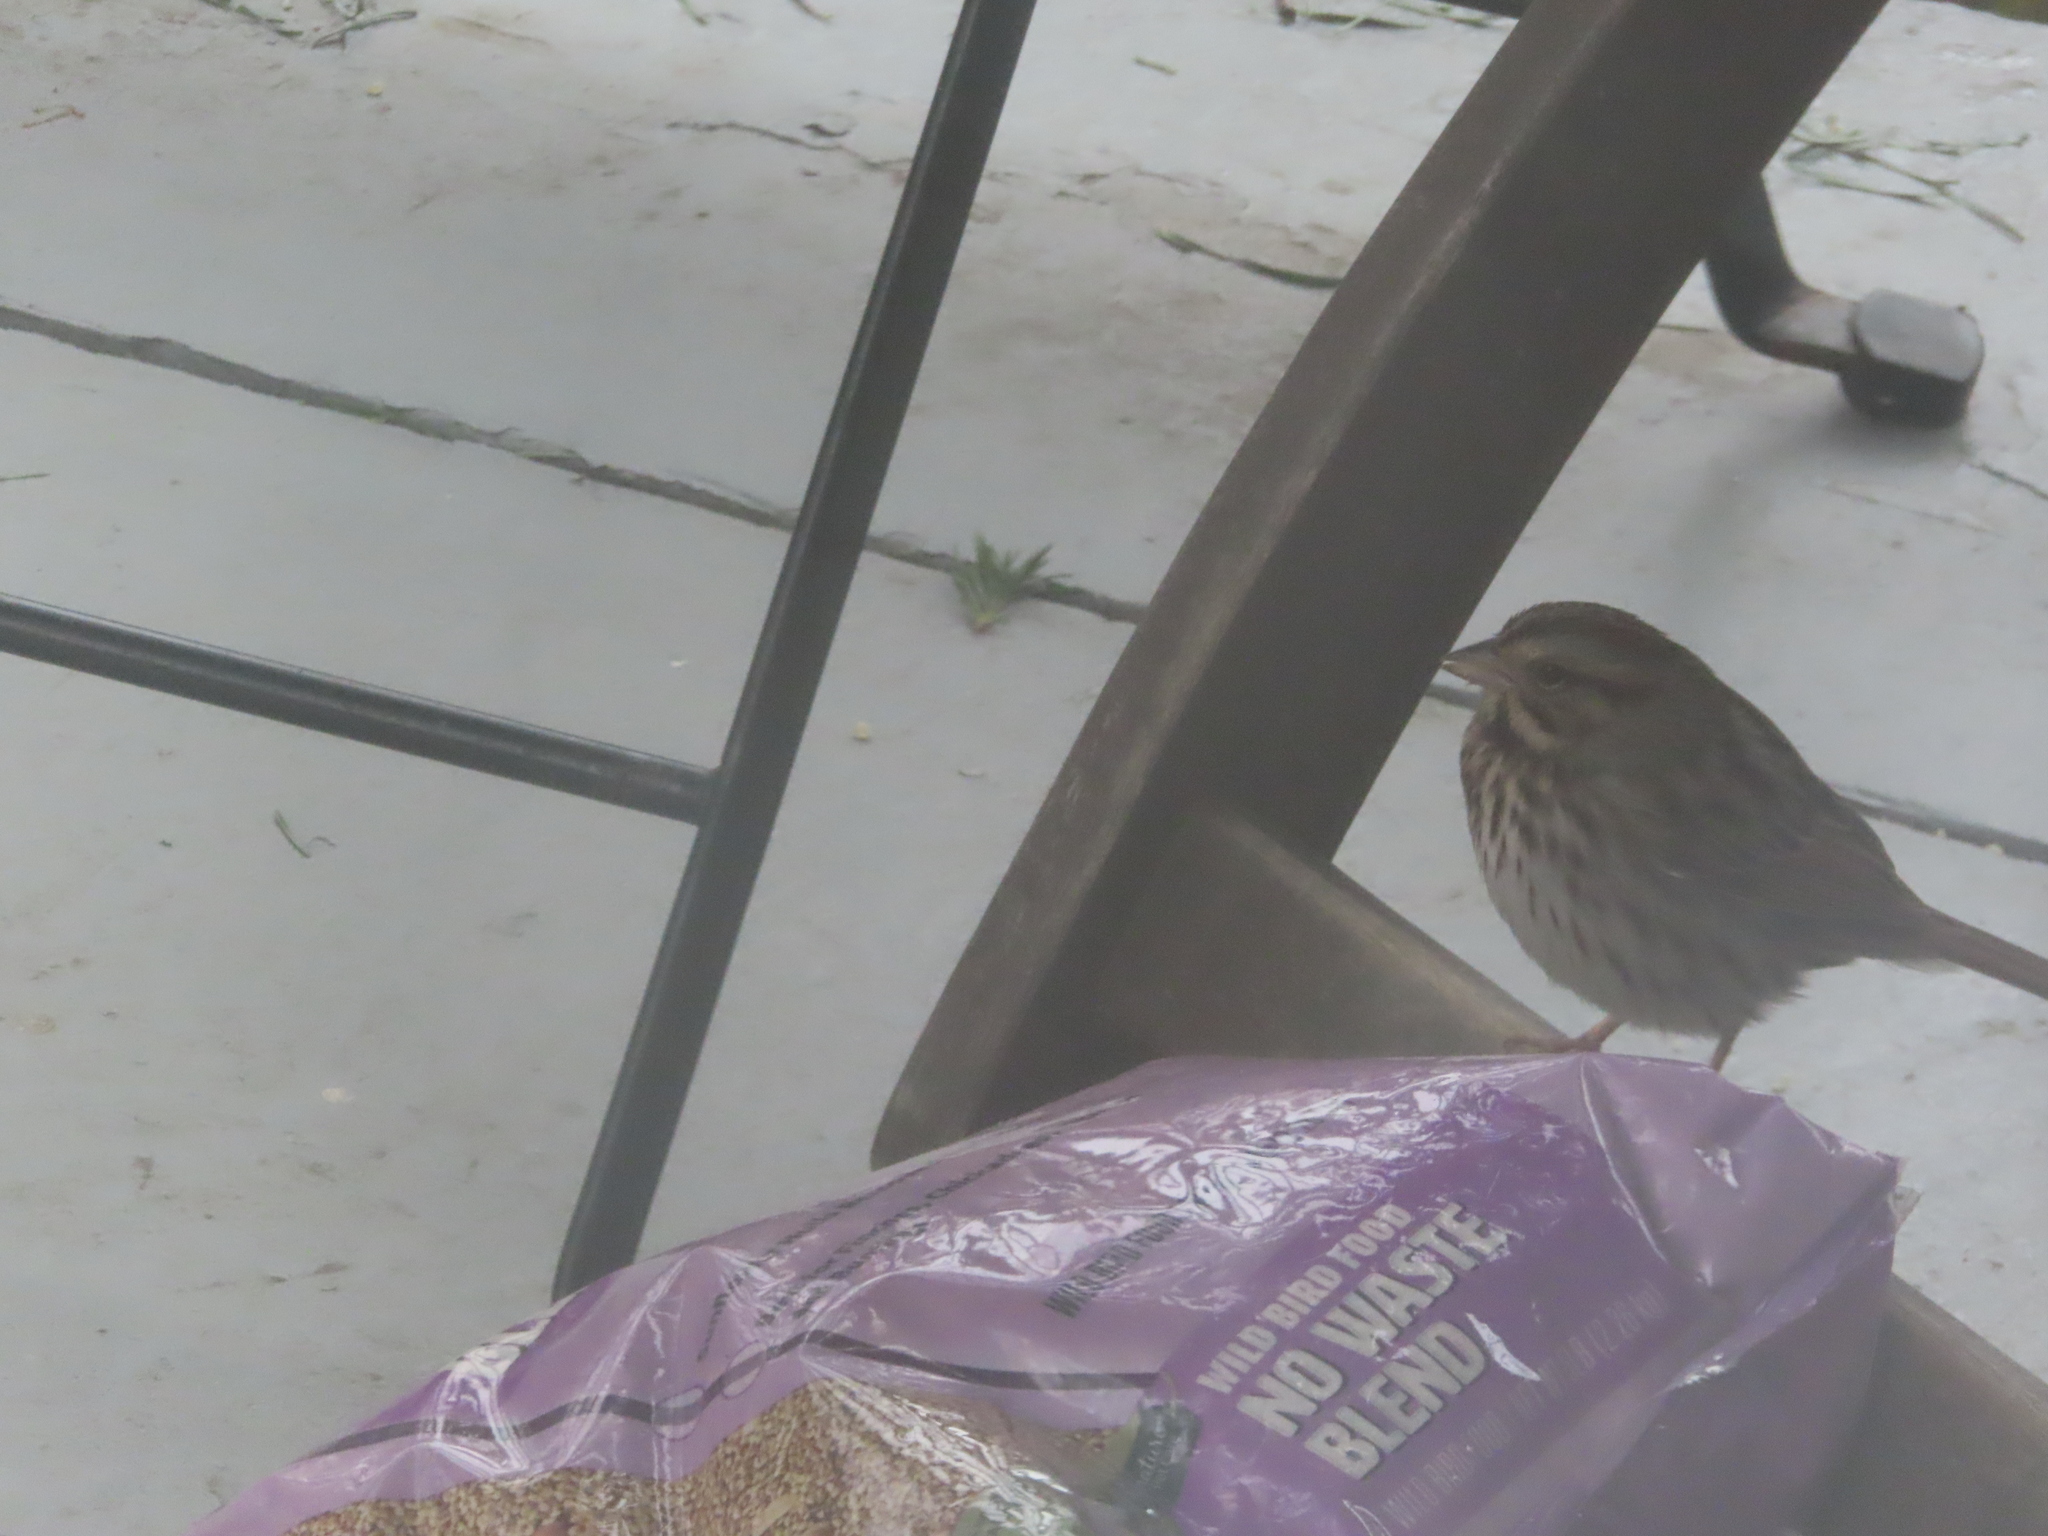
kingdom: Animalia
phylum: Chordata
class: Aves
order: Passeriformes
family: Passerellidae
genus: Melospiza
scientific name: Melospiza melodia
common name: Song sparrow
